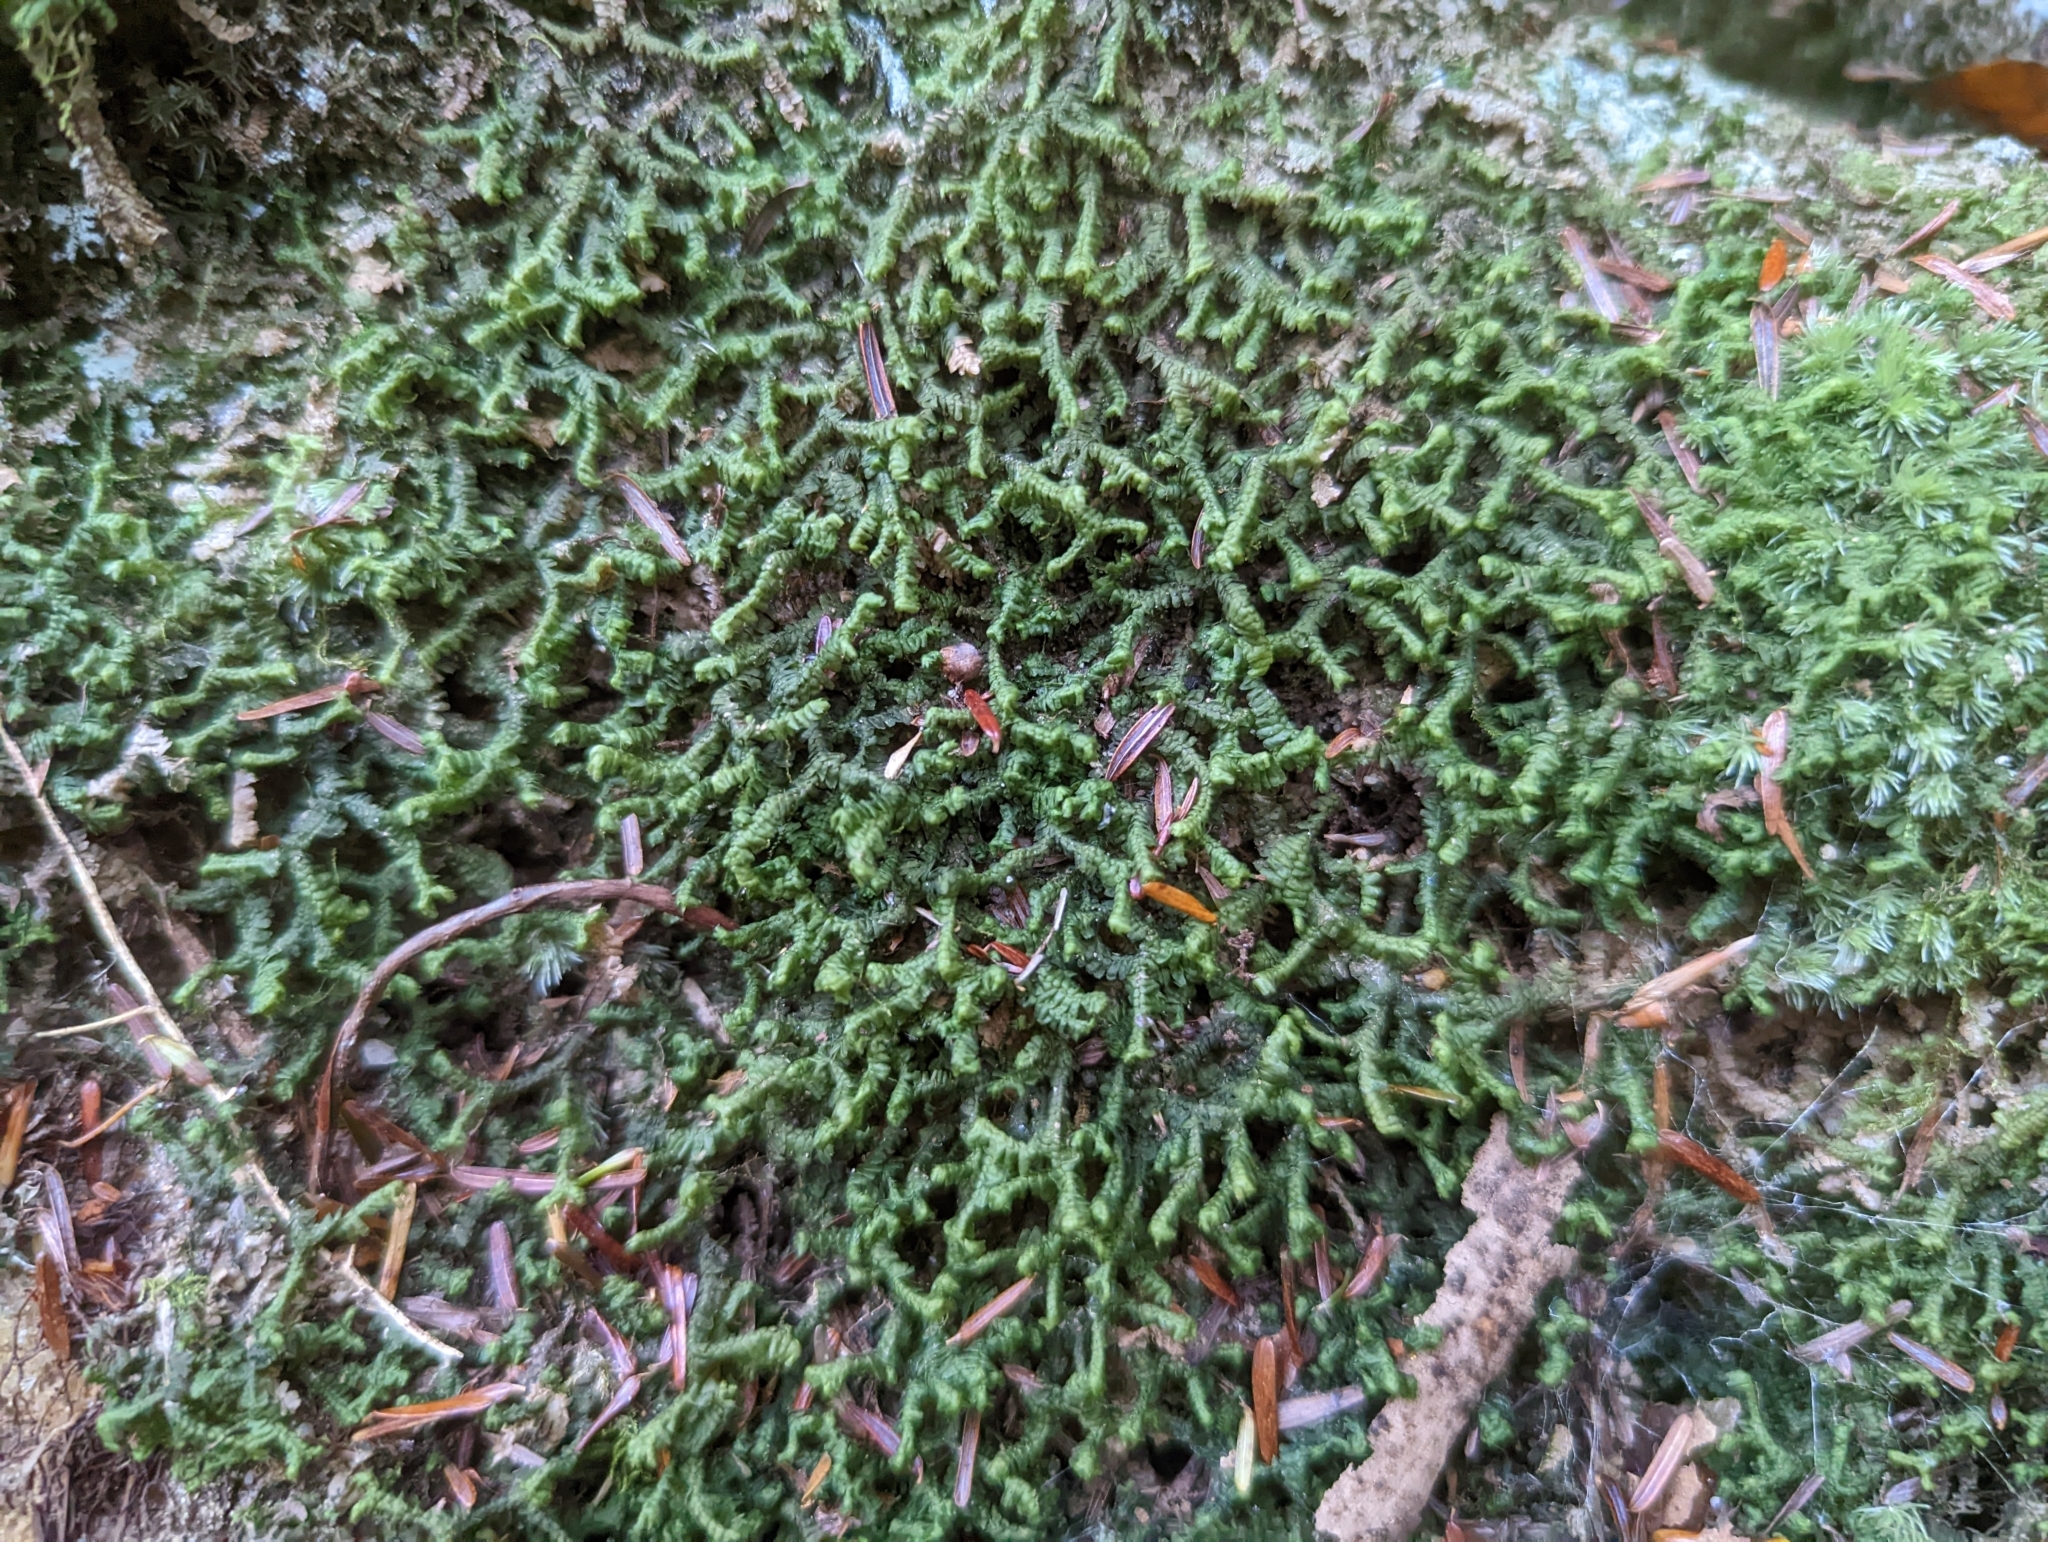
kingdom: Plantae
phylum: Marchantiophyta
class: Jungermanniopsida
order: Jungermanniales
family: Lepidoziaceae
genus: Bazzania
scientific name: Bazzania trilobata
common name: Three-lobed whipwort
